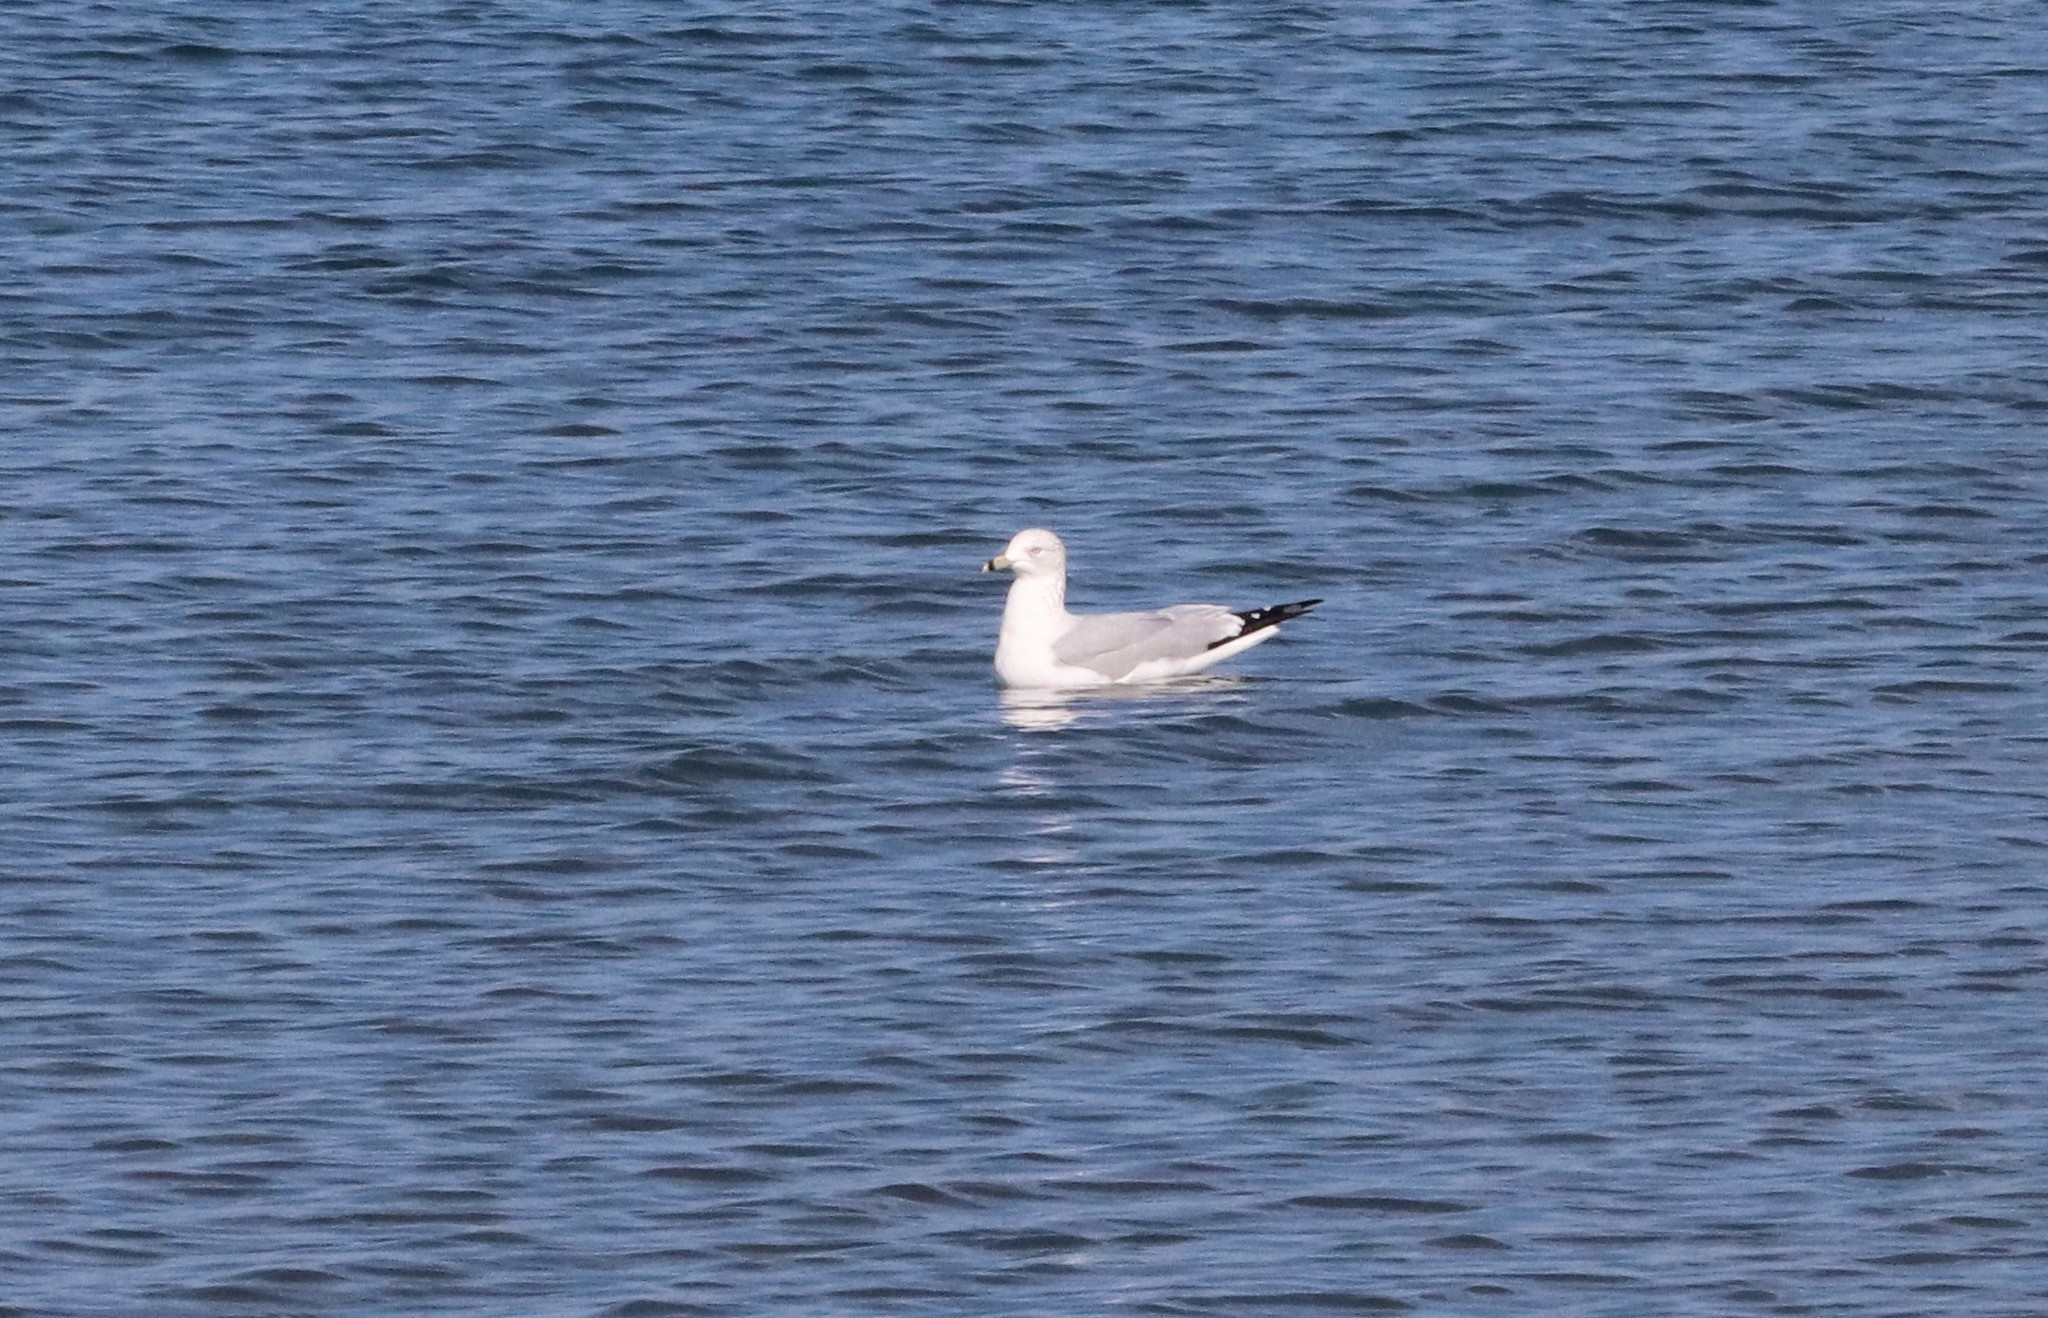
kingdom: Animalia
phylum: Chordata
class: Aves
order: Charadriiformes
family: Laridae
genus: Larus
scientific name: Larus delawarensis
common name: Ring-billed gull
